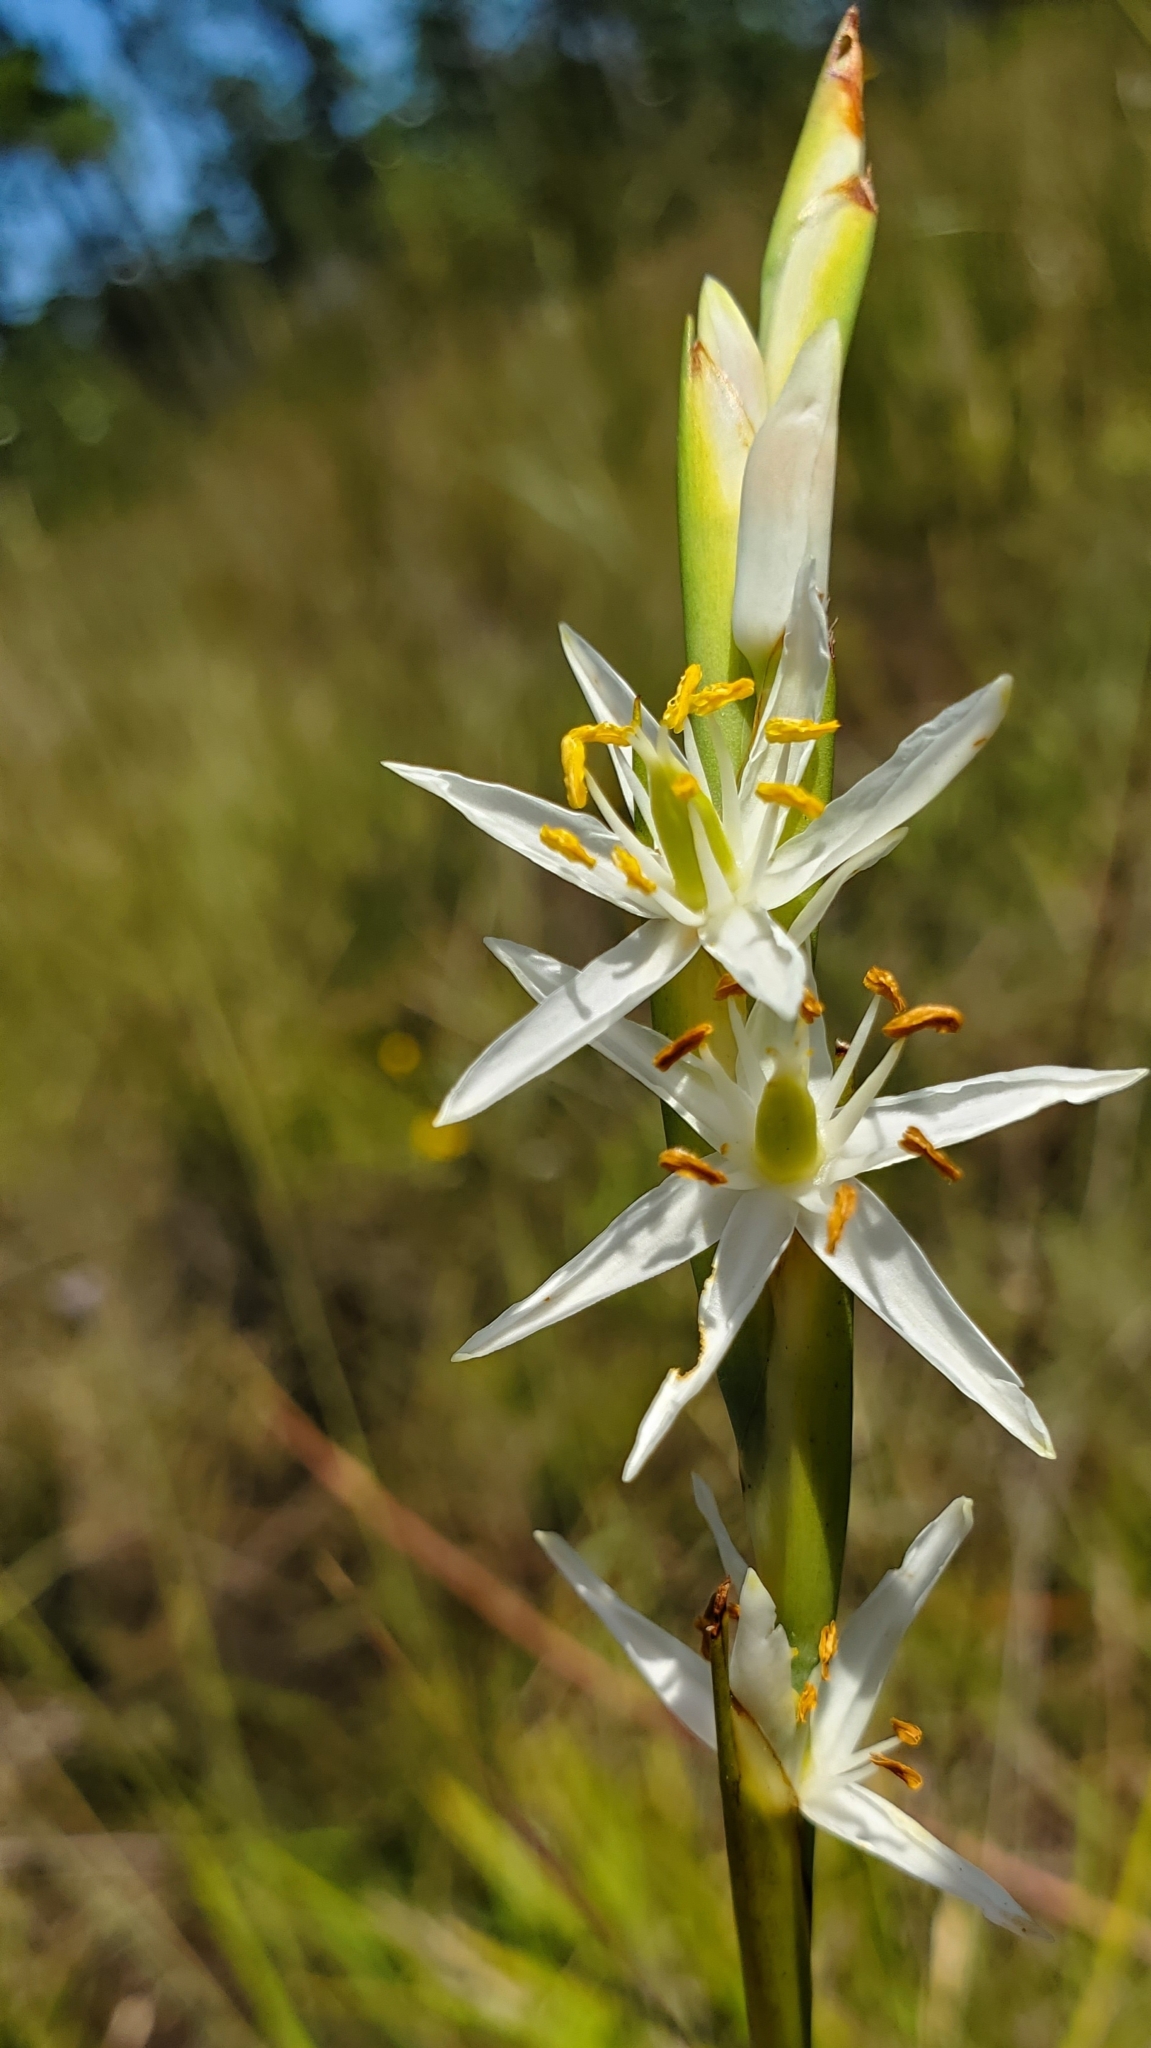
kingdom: Plantae
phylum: Tracheophyta
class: Liliopsida
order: Alismatales
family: Tofieldiaceae
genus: Pleea
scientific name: Pleea tenuifolia
